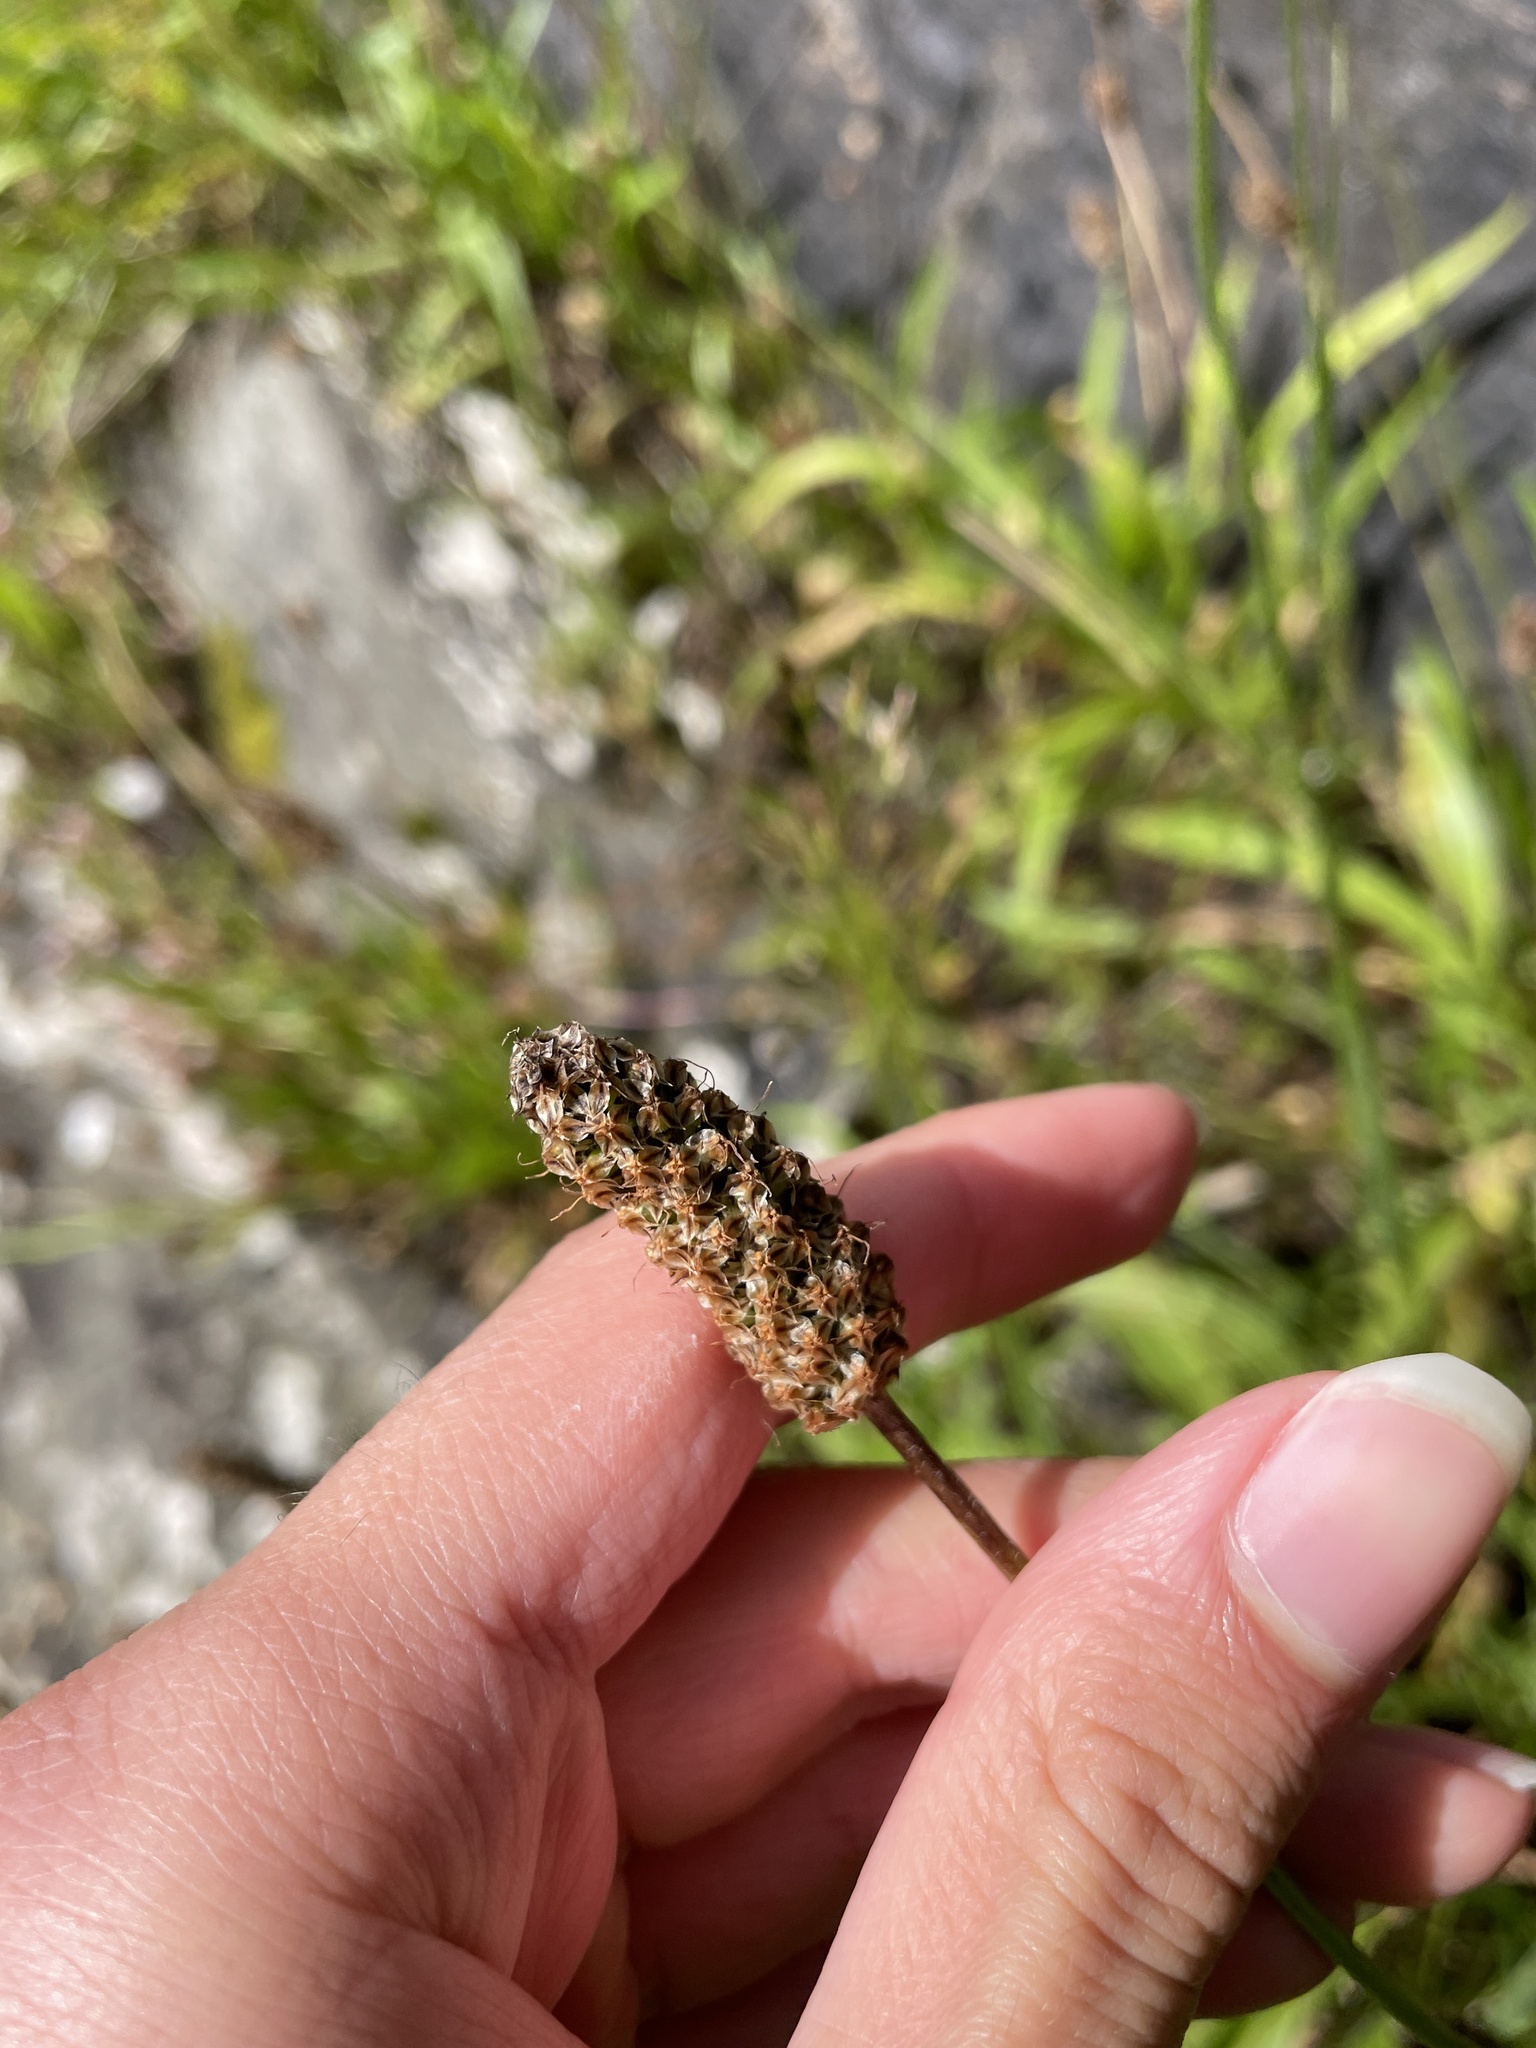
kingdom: Plantae
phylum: Tracheophyta
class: Magnoliopsida
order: Lamiales
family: Plantaginaceae
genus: Plantago
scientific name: Plantago lanceolata
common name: Ribwort plantain
